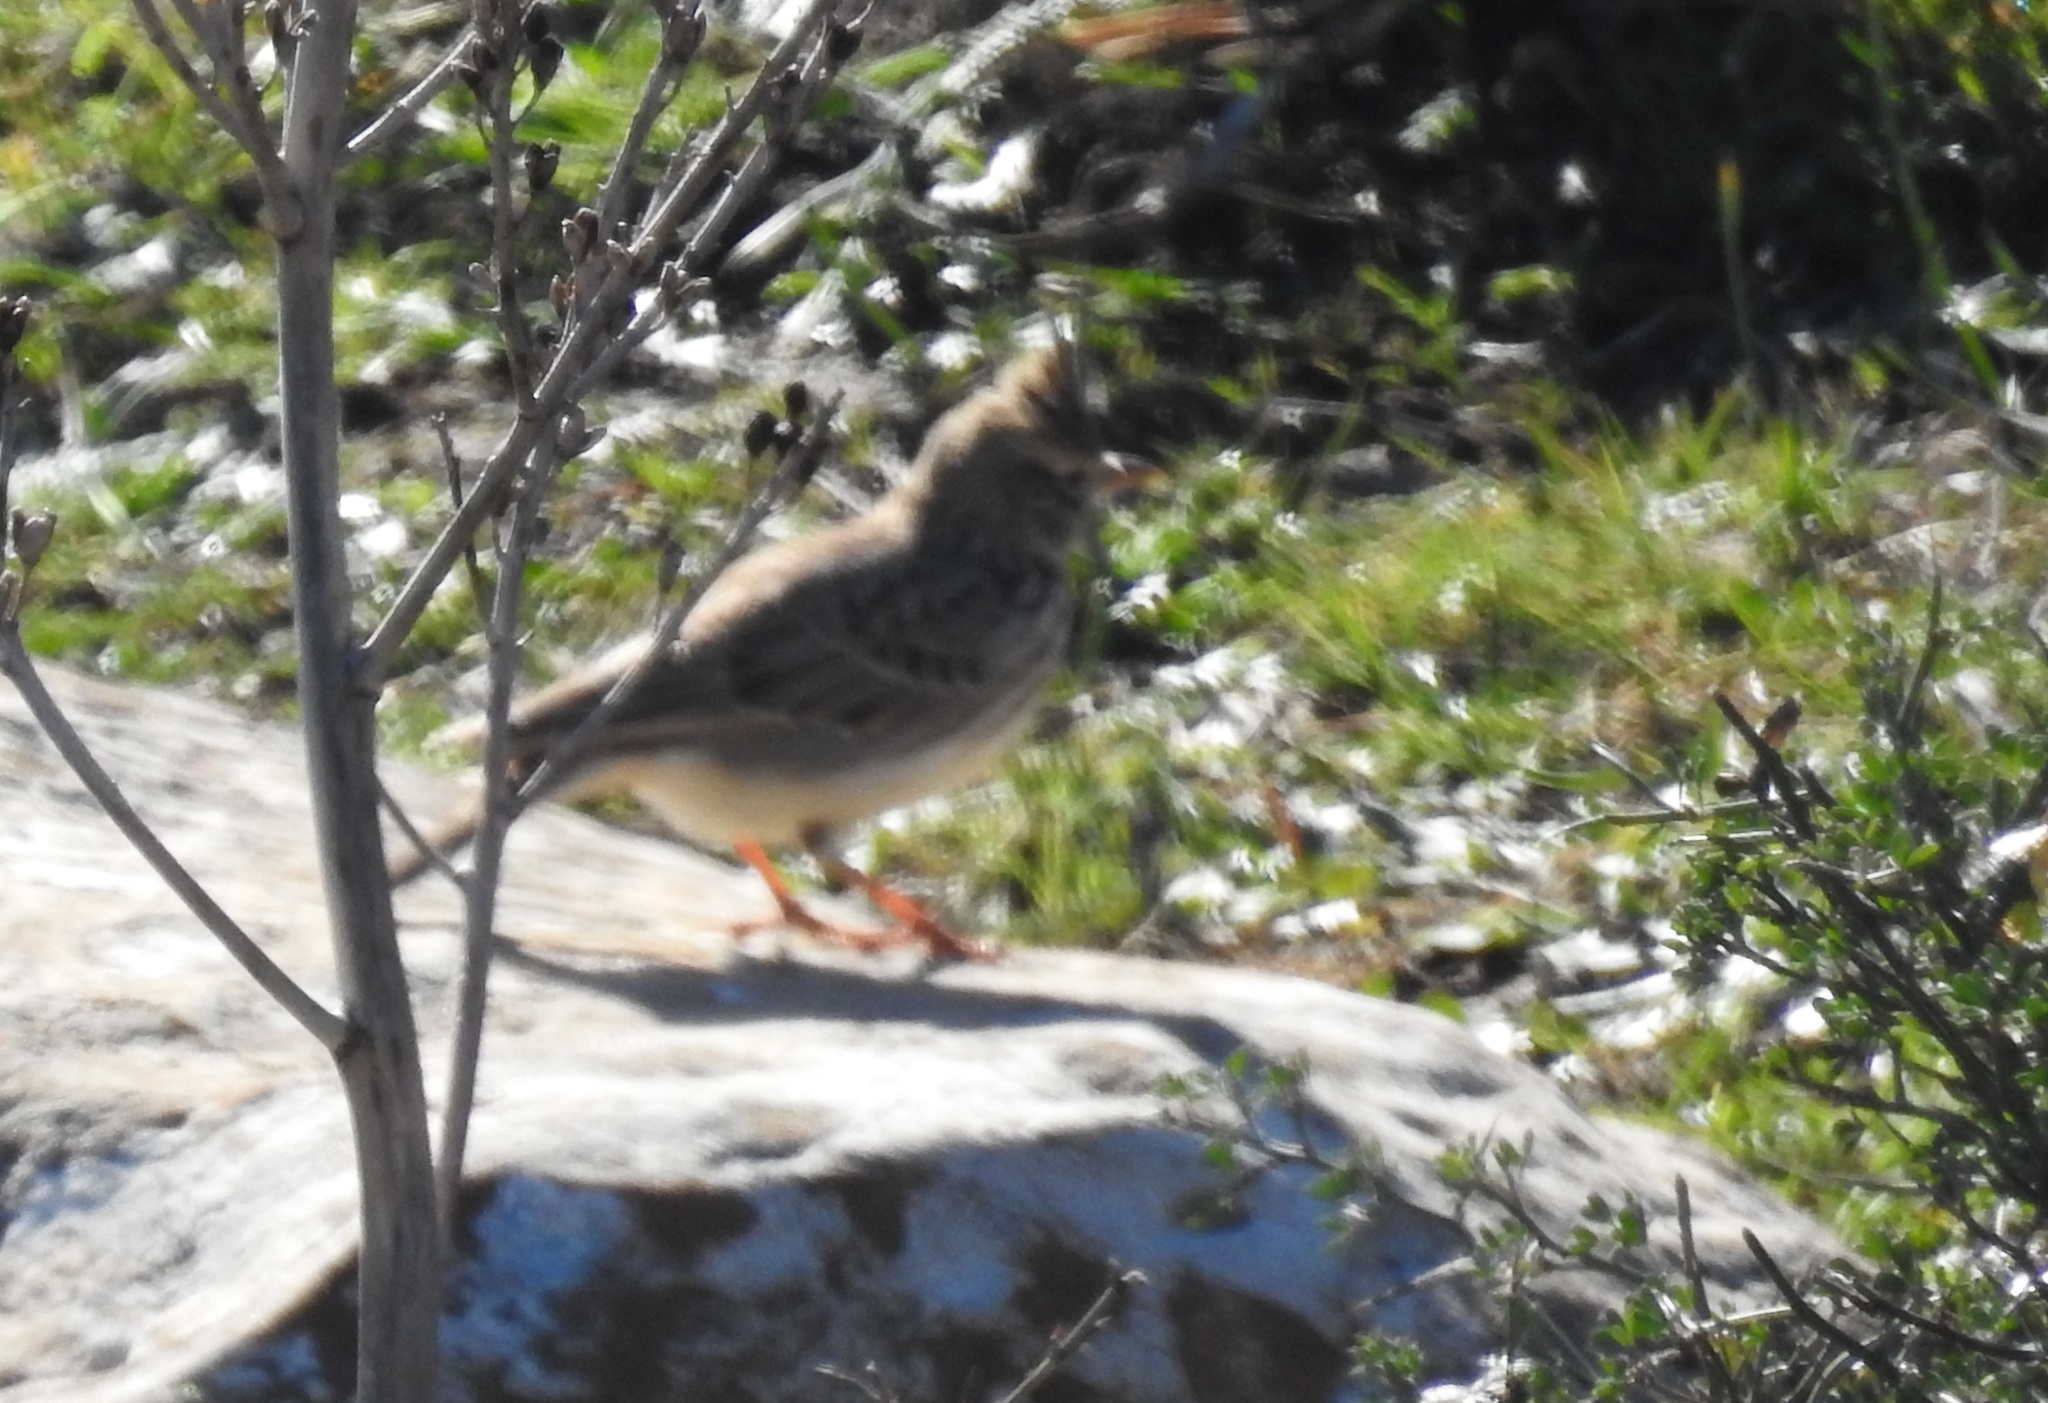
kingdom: Animalia
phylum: Chordata
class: Aves
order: Passeriformes
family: Alaudidae
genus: Galerida
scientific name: Galerida theklae
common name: Thekla lark
